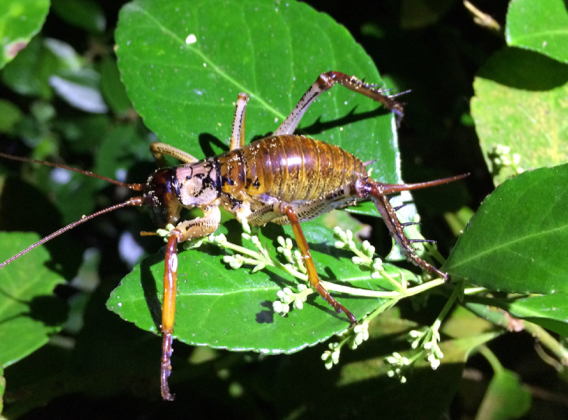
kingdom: Animalia
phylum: Arthropoda
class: Insecta
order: Orthoptera
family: Anostostomatidae
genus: Hemideina
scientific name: Hemideina thoracica
